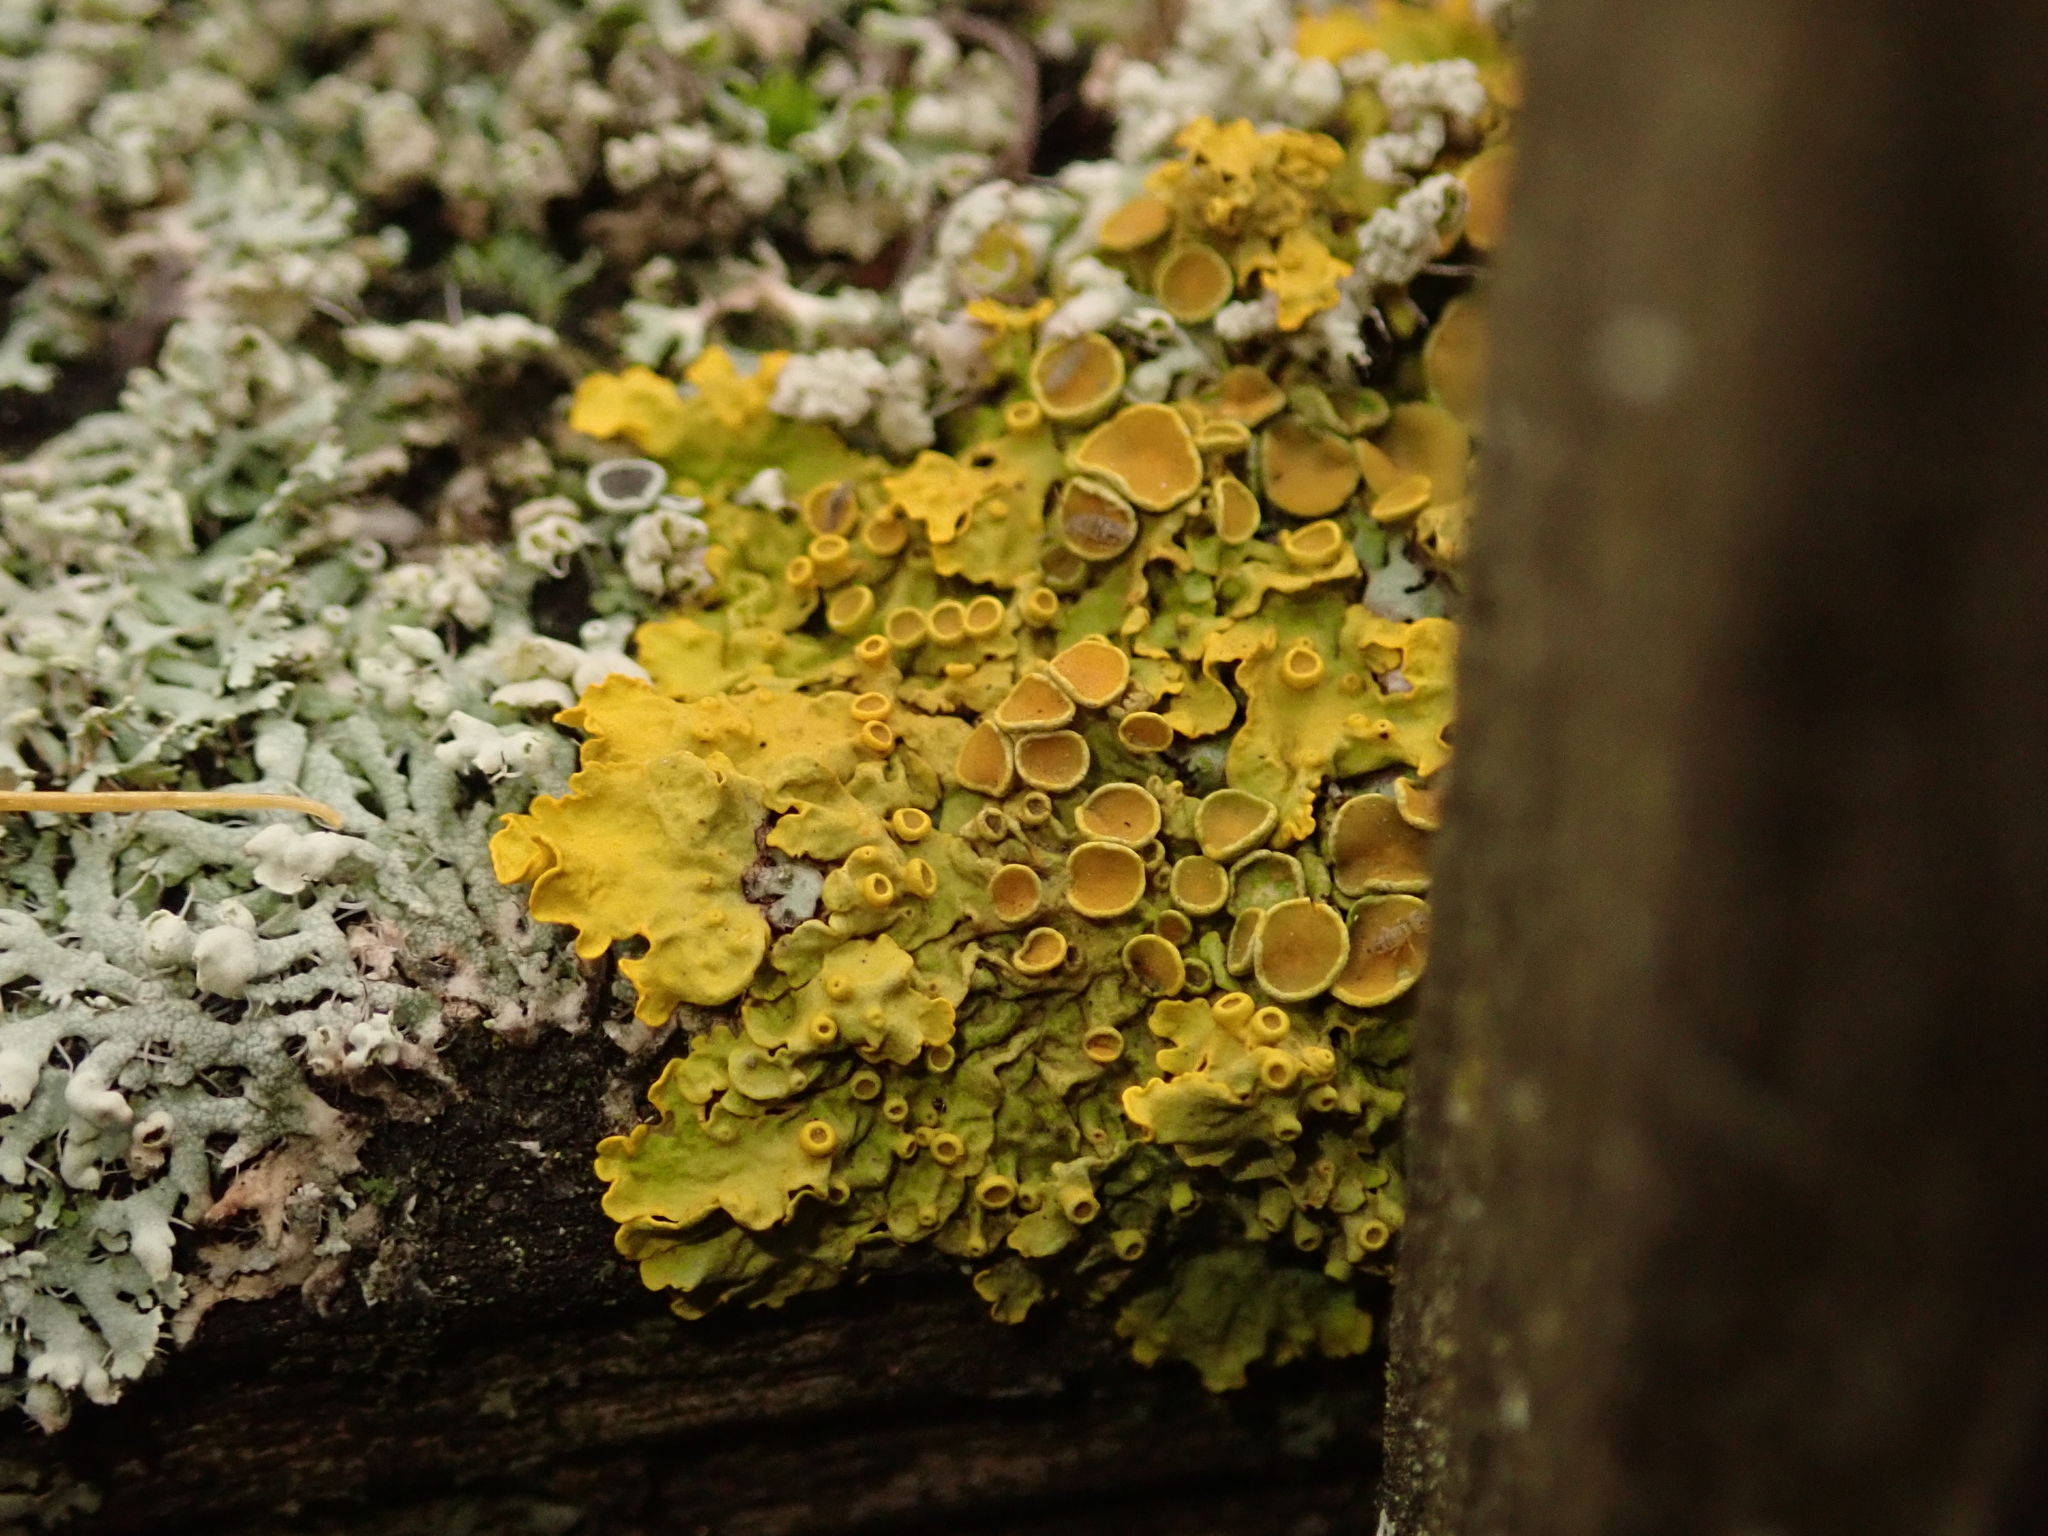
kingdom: Fungi
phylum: Ascomycota
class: Lecanoromycetes
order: Teloschistales
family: Teloschistaceae
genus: Xanthoria
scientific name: Xanthoria parietina
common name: Common orange lichen
